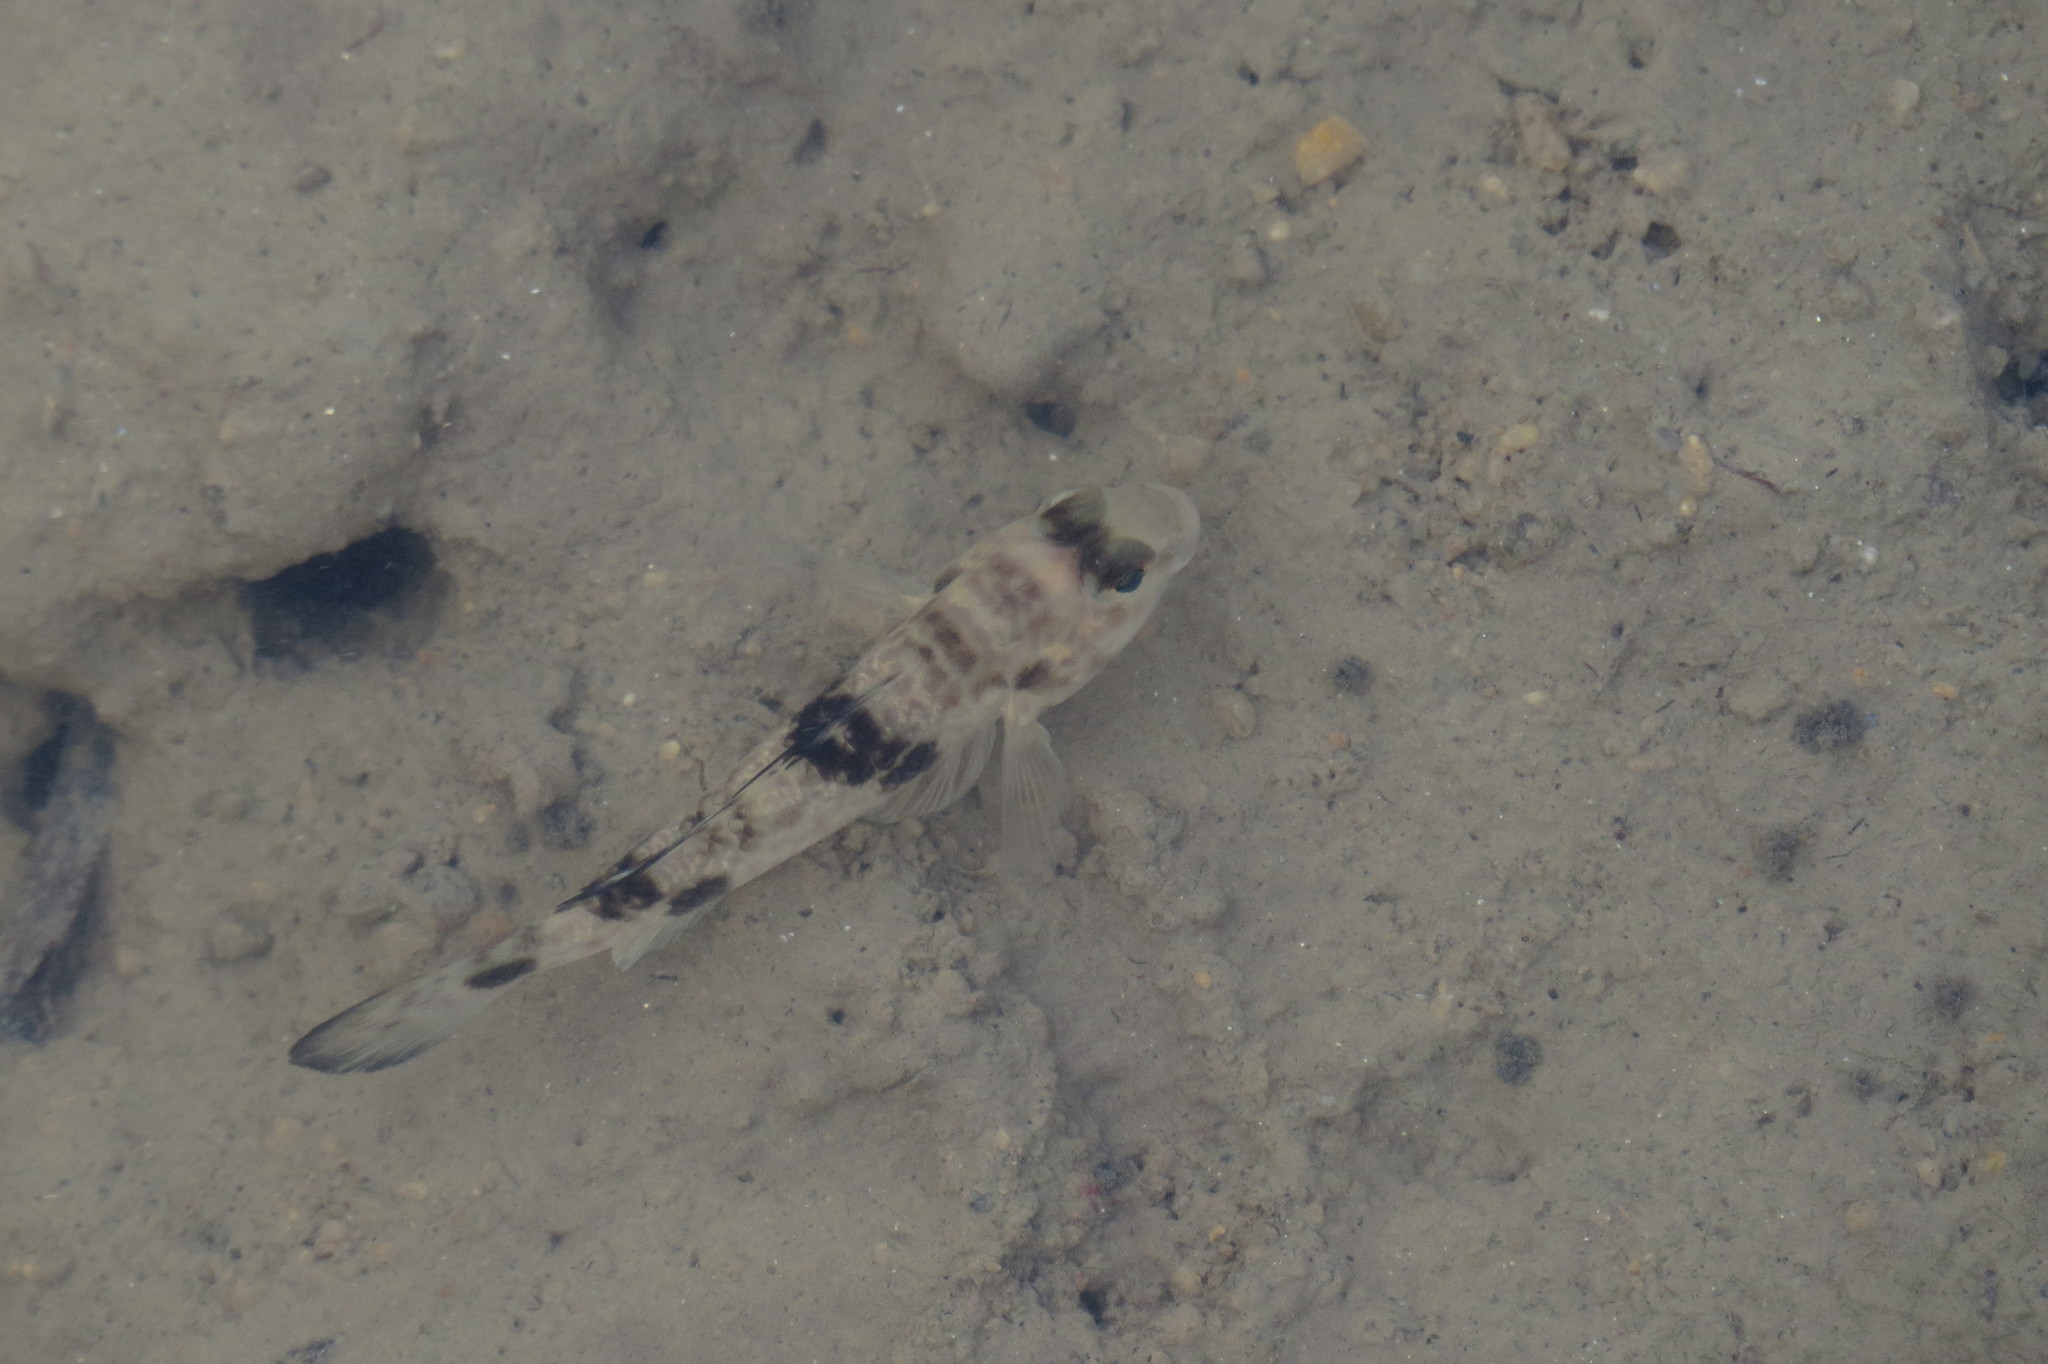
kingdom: Animalia
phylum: Chordata
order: Perciformes
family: Gobiidae
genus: Acentrogobius
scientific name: Acentrogobius nebulosus
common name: Shadow goby
